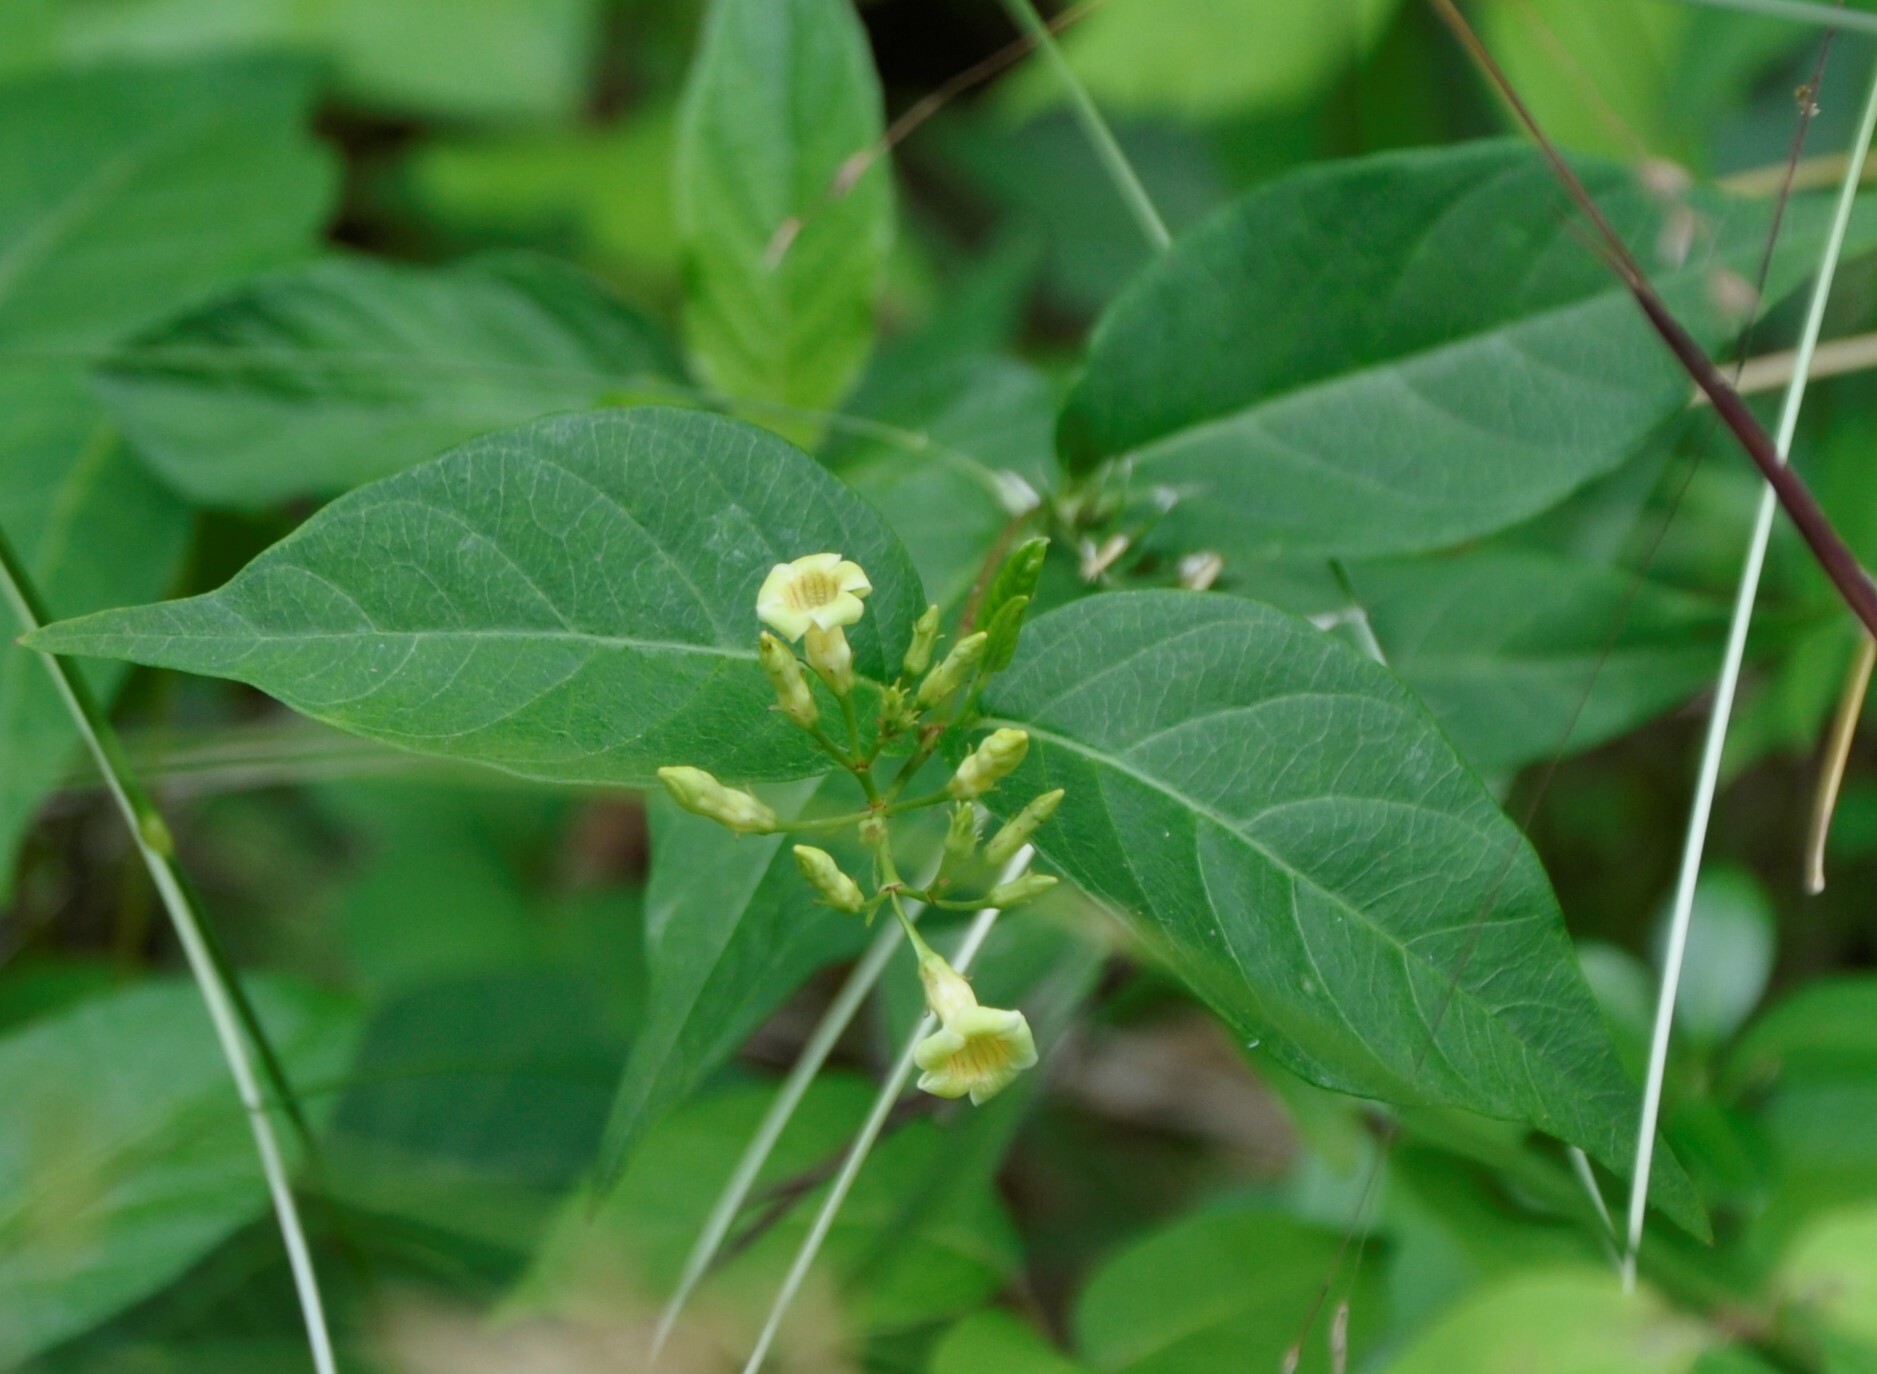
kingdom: Plantae
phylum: Tracheophyta
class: Magnoliopsida
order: Gentianales
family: Apocynaceae
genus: Thyrsanthella
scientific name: Thyrsanthella difformis
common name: Climbing dogbane
